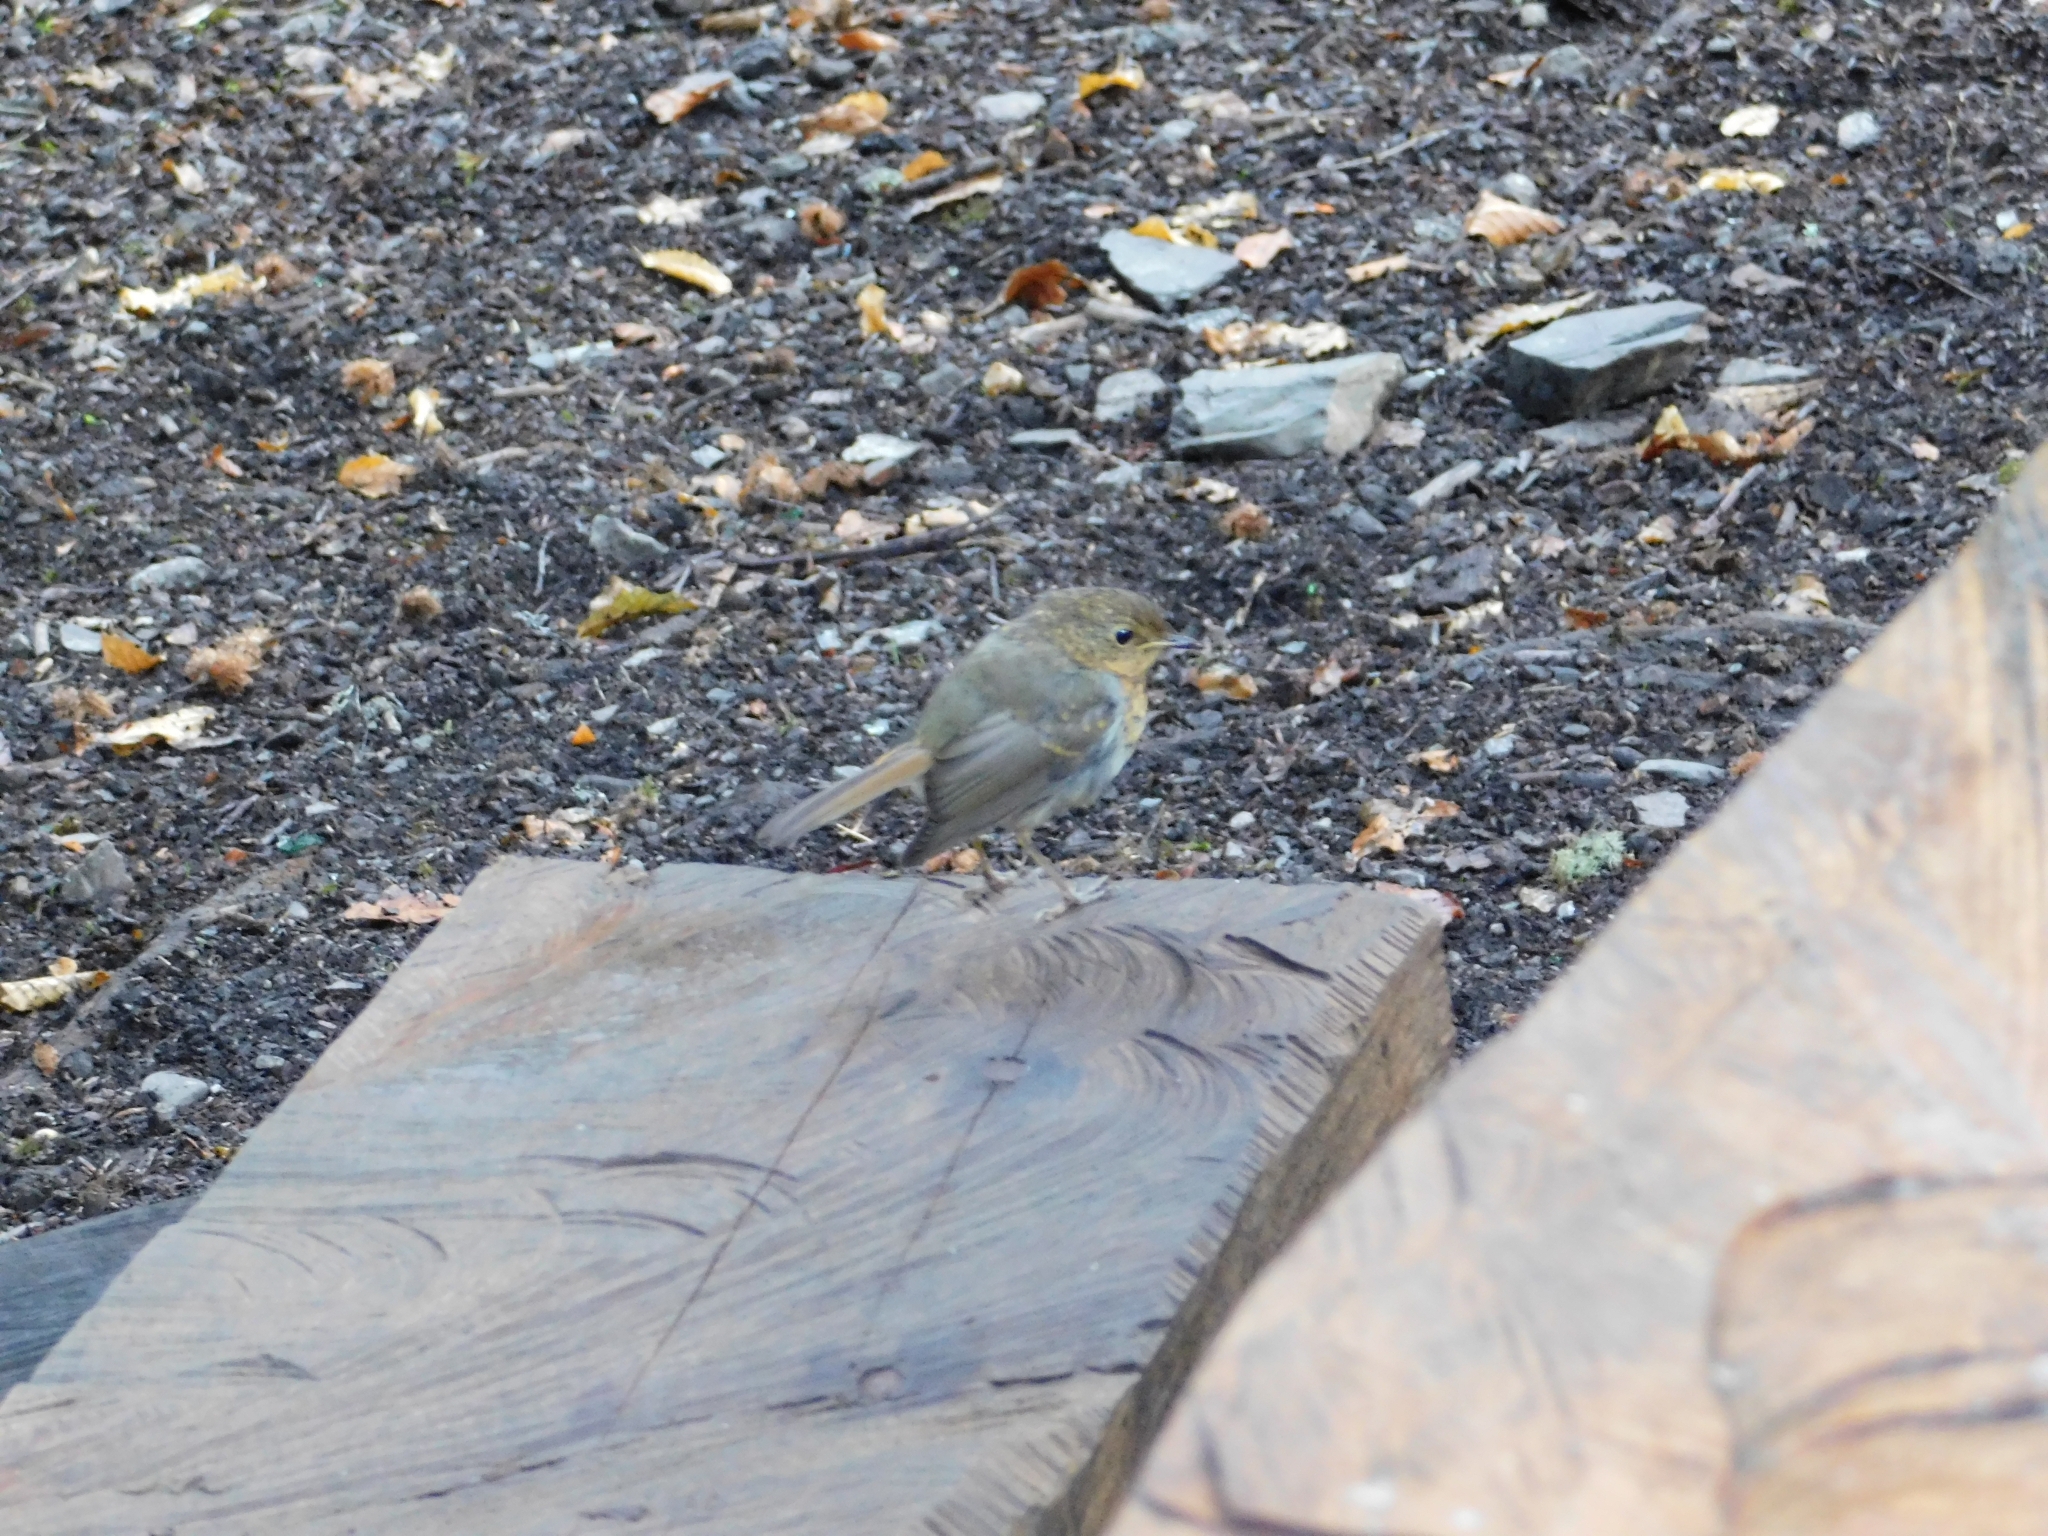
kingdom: Animalia
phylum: Chordata
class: Aves
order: Passeriformes
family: Muscicapidae
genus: Erithacus
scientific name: Erithacus rubecula
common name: European robin
